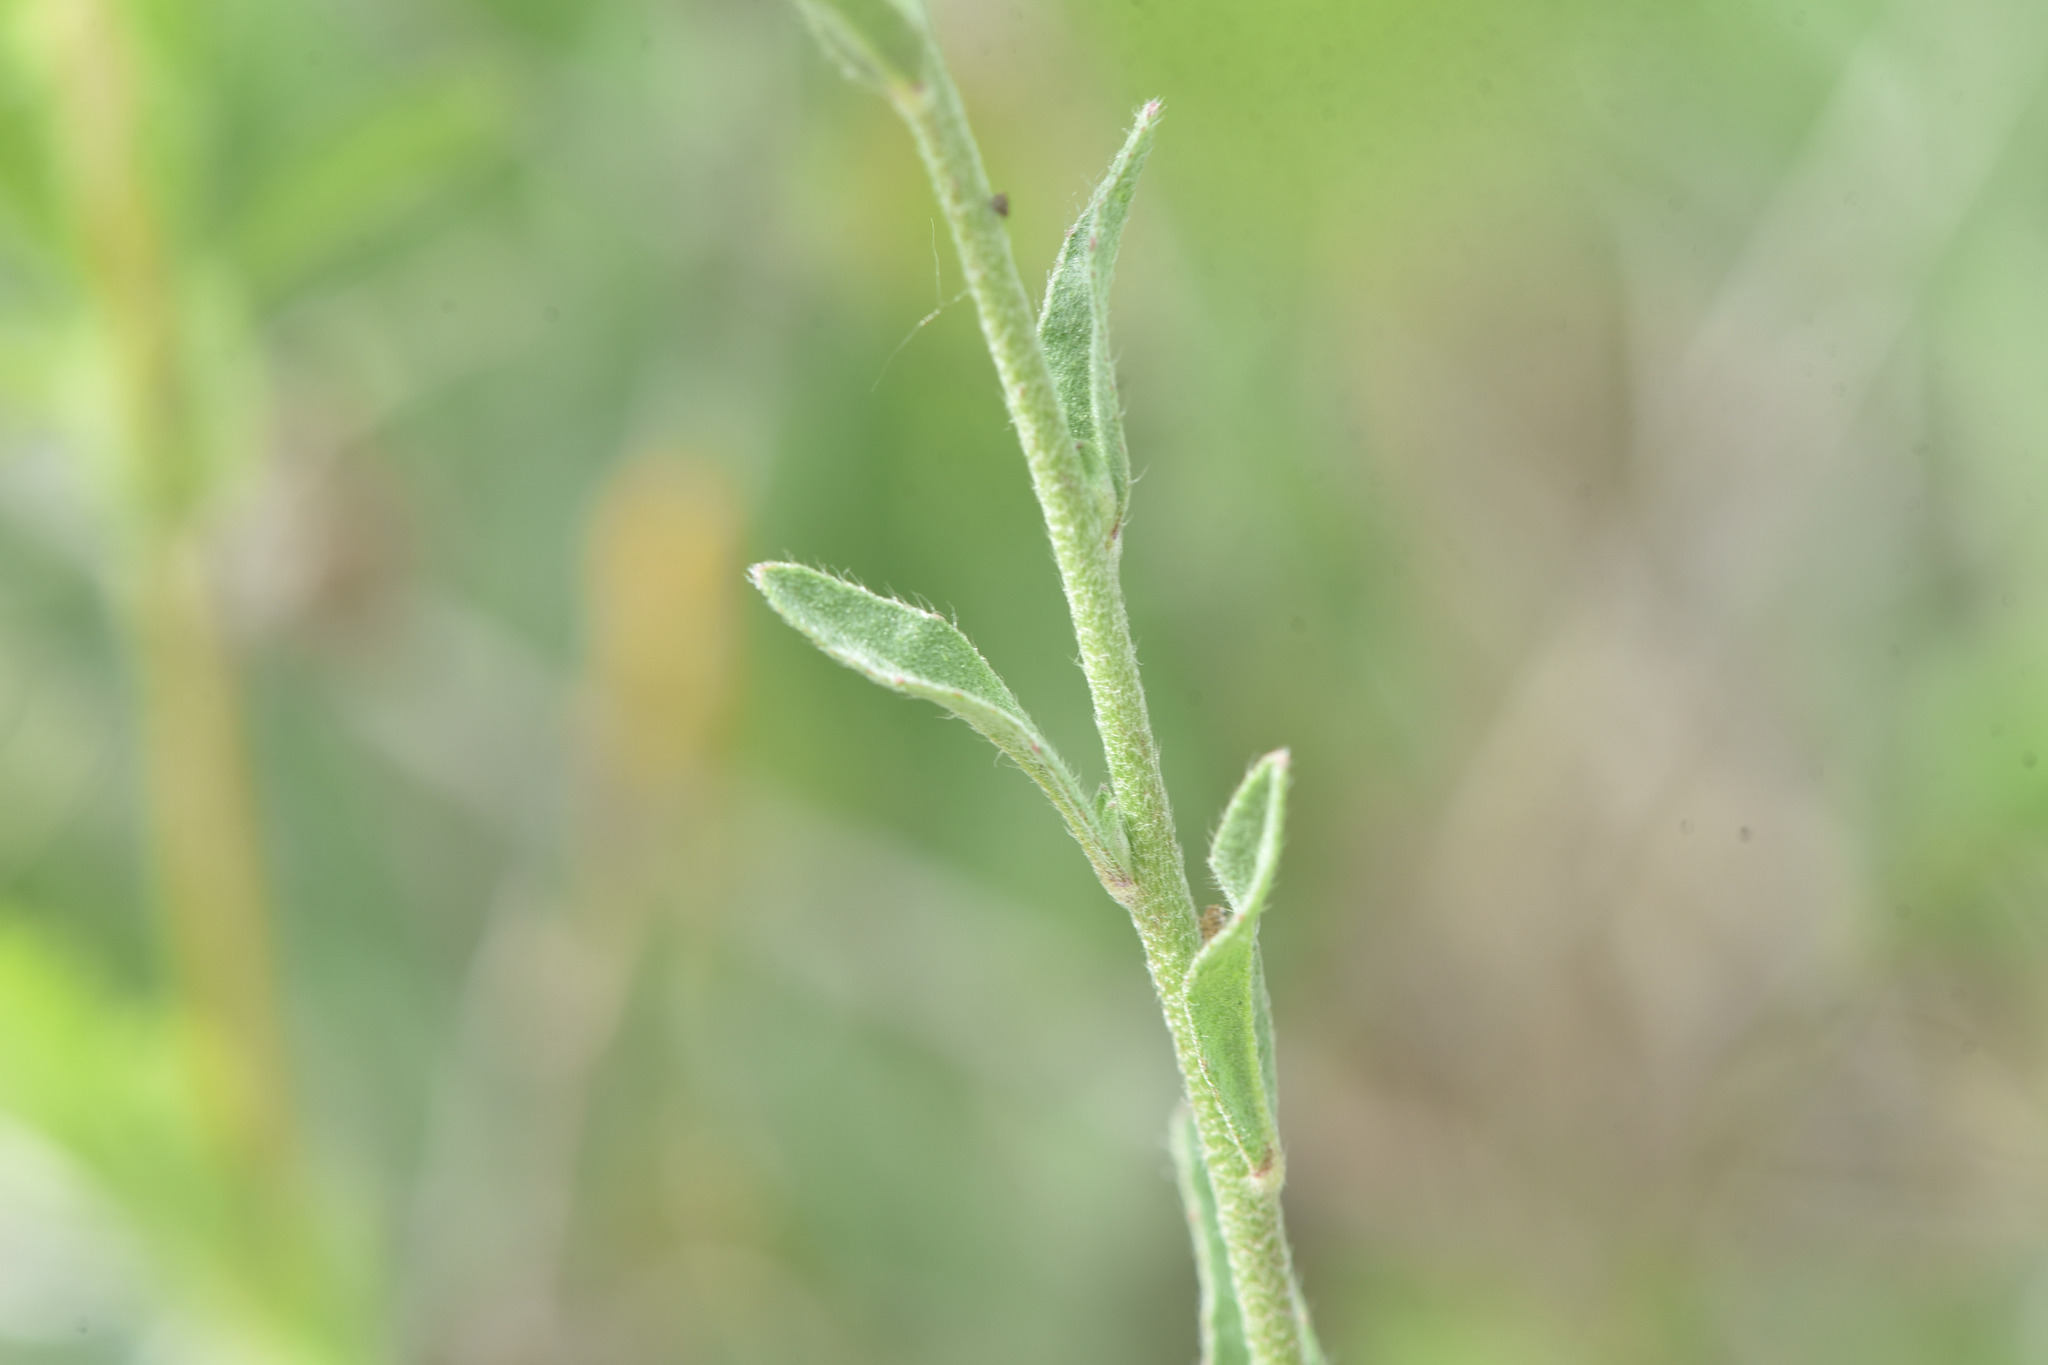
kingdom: Plantae
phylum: Tracheophyta
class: Magnoliopsida
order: Brassicales
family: Brassicaceae
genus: Berteroa
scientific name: Berteroa incana
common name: Hoary alison
